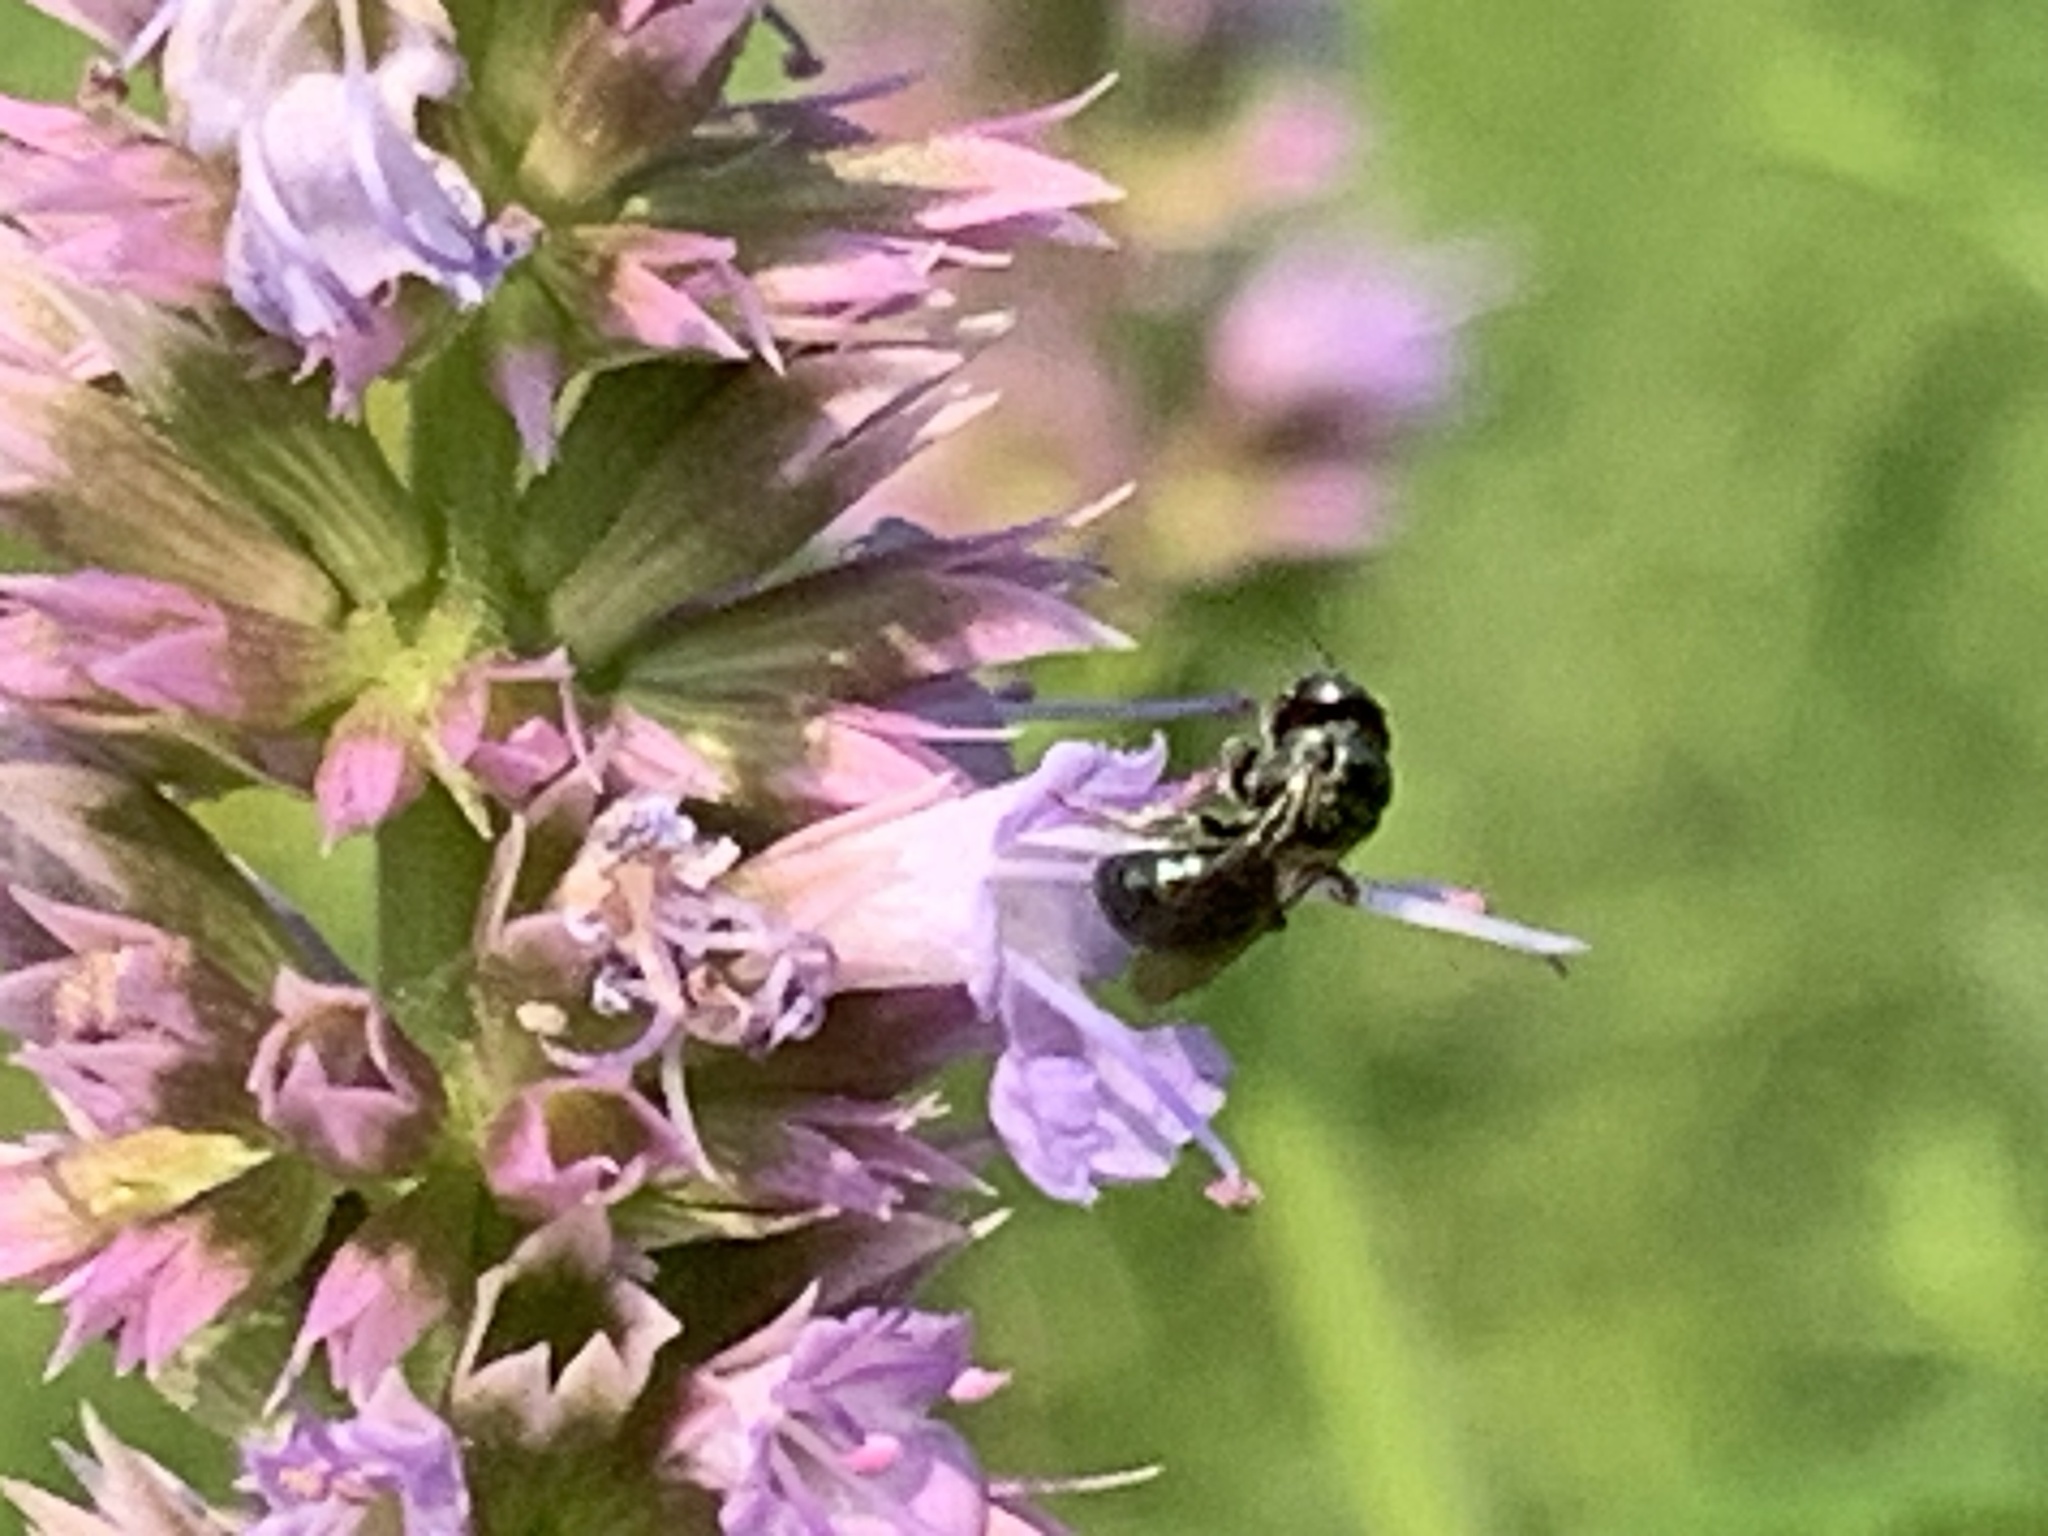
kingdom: Animalia
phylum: Arthropoda
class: Insecta
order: Hymenoptera
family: Apidae
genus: Zadontomerus
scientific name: Zadontomerus
